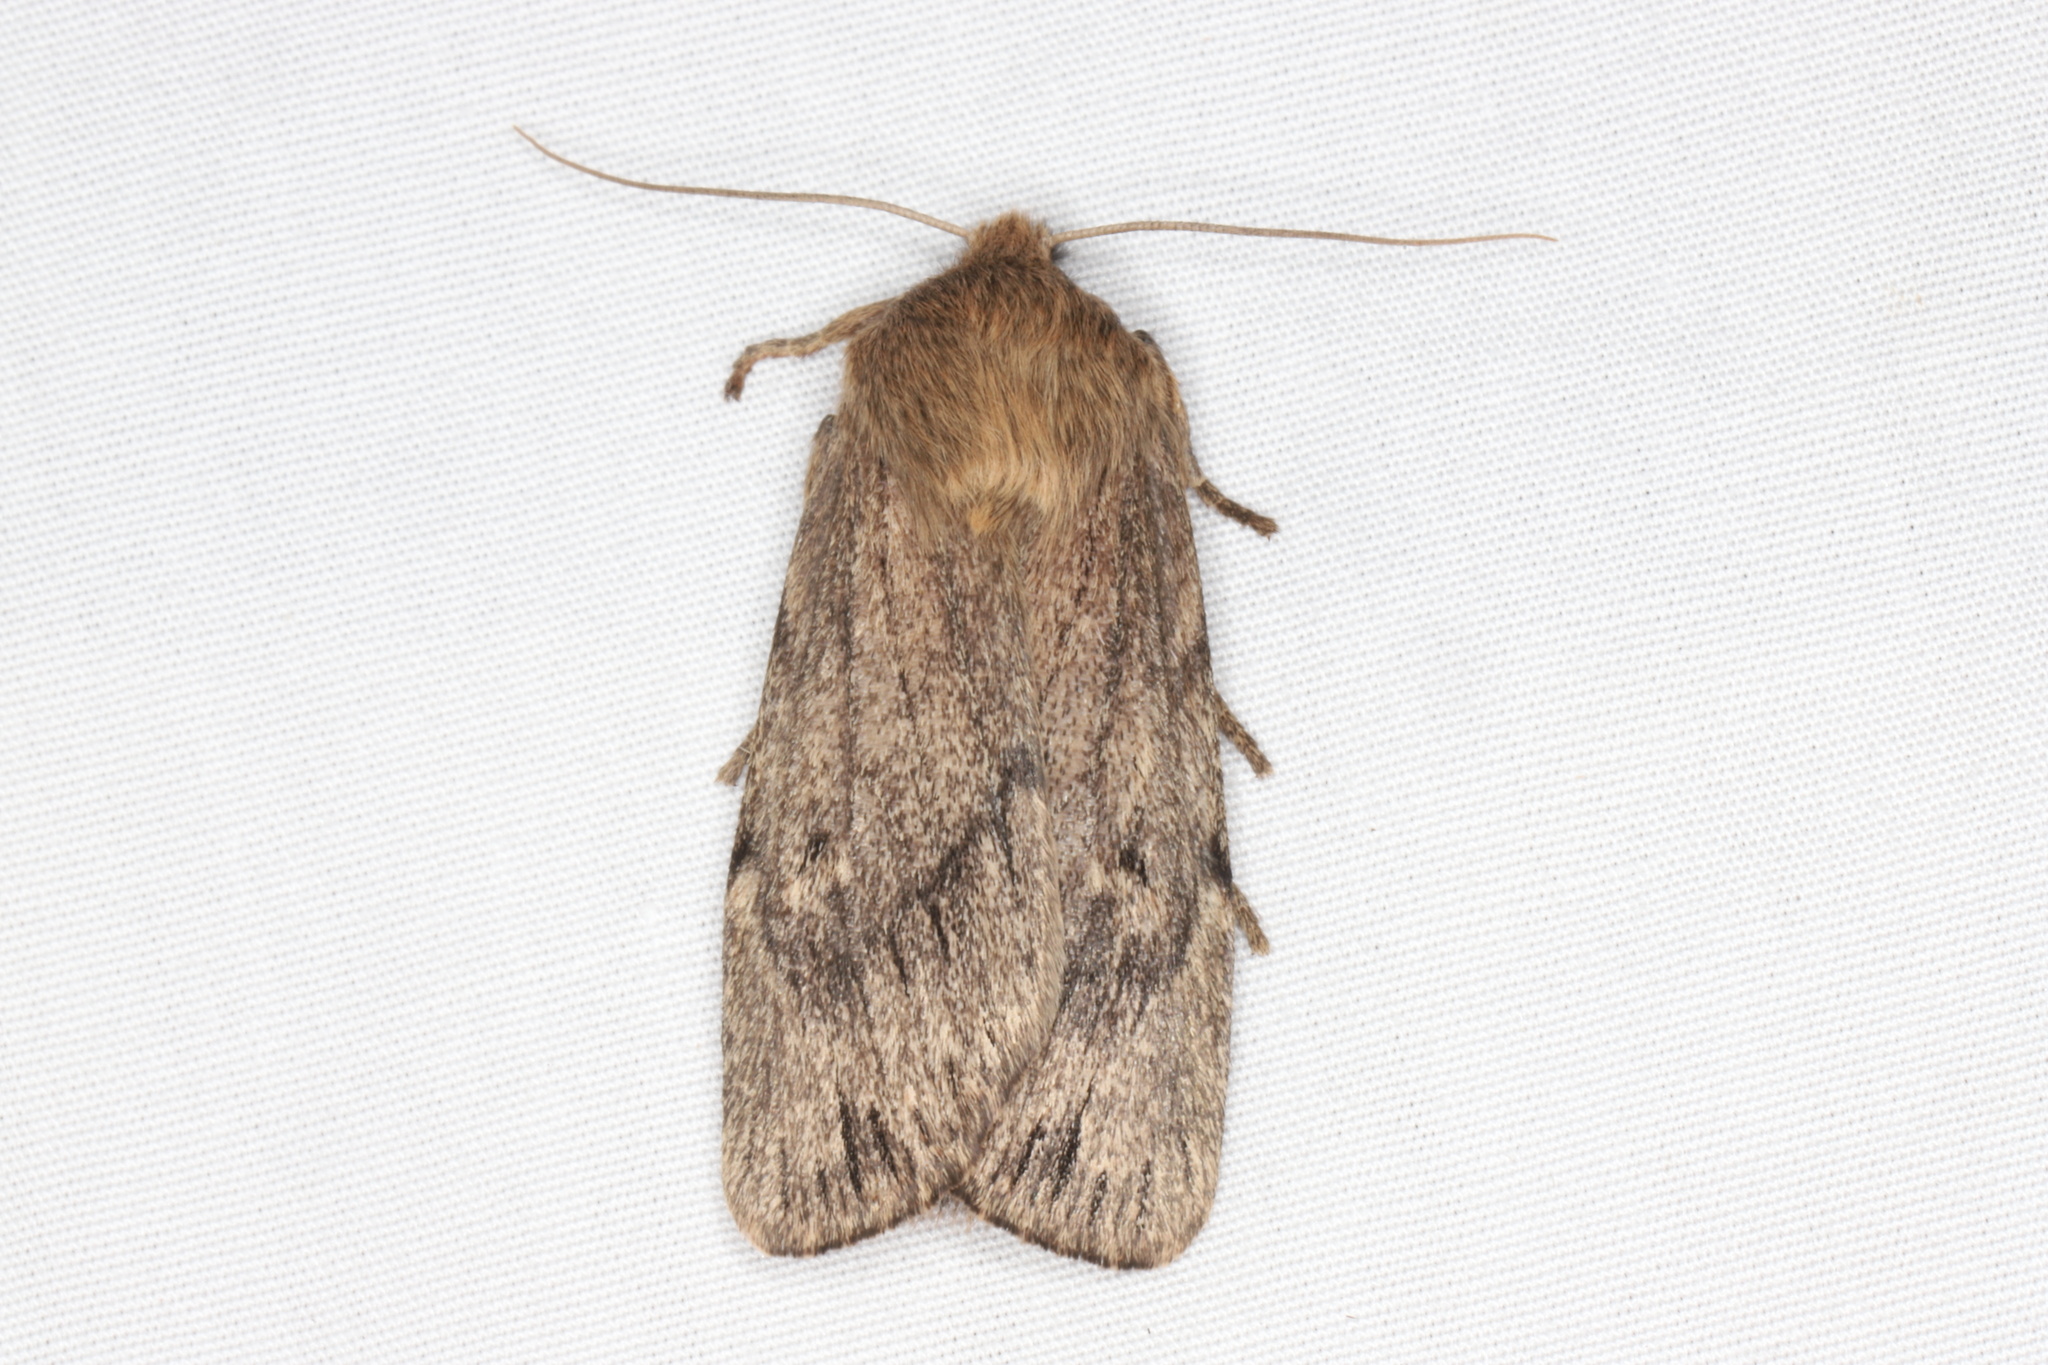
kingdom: Animalia
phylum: Arthropoda
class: Insecta
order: Lepidoptera
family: Noctuidae
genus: Ufeus
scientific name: Ufeus satyricus
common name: Brown satyr moth
